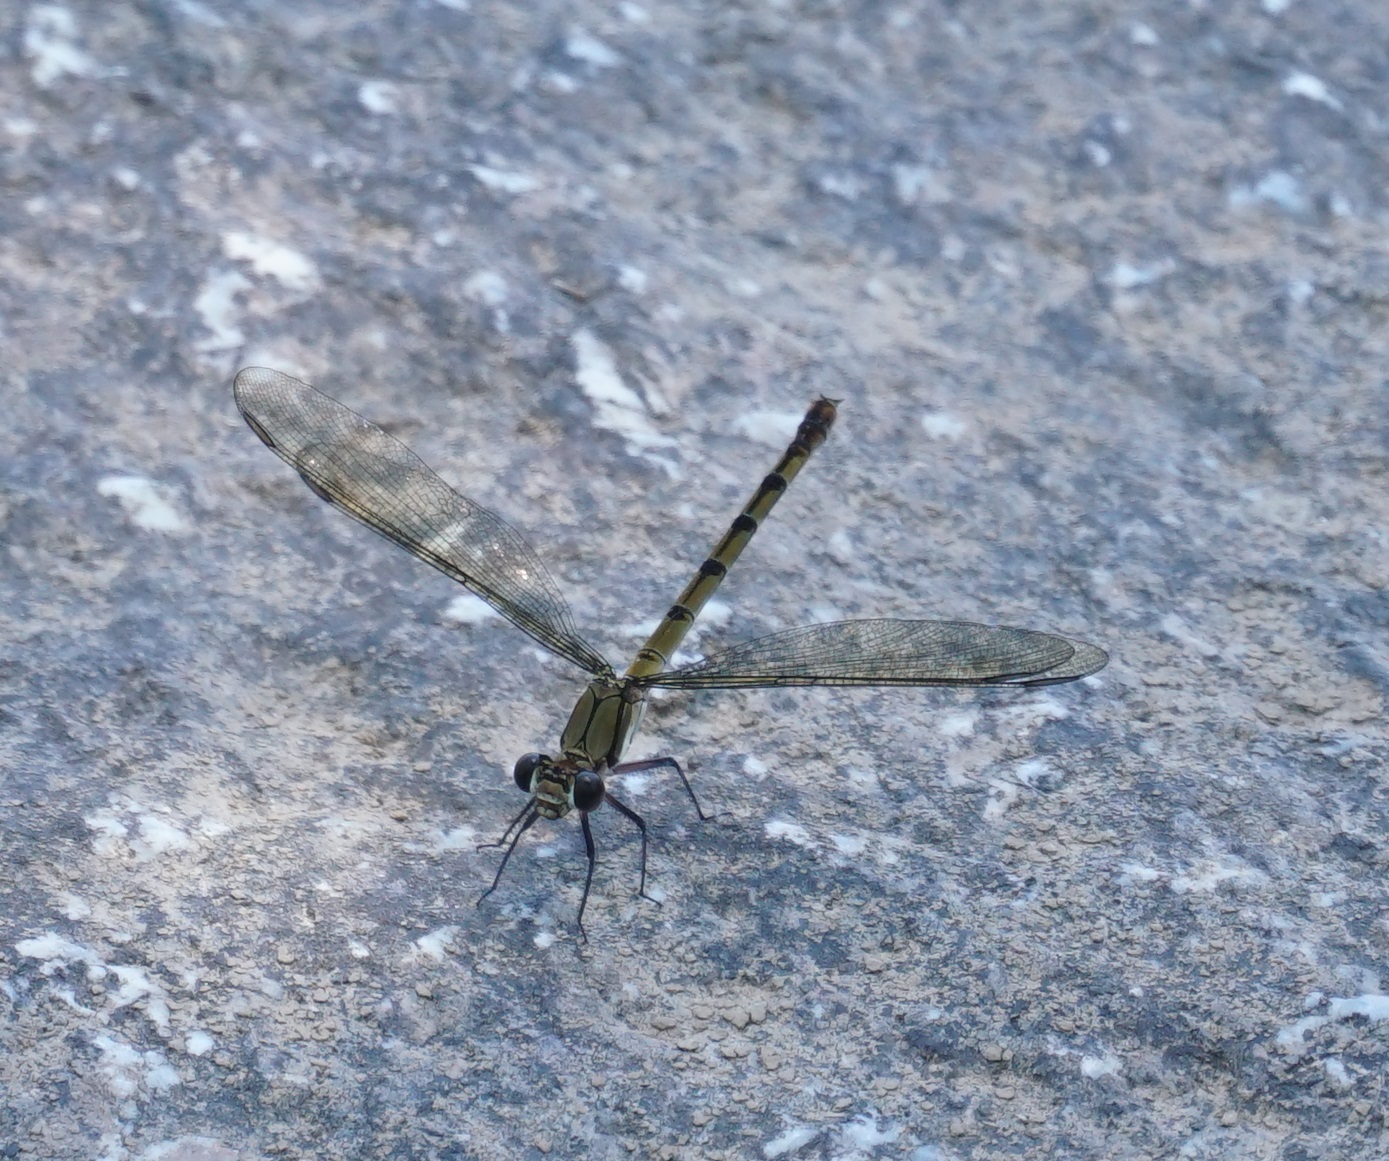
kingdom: Animalia
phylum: Arthropoda
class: Insecta
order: Odonata
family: Lestoideidae
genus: Diphlebia
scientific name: Diphlebia euphoeoides
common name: Tropical rockmaster
